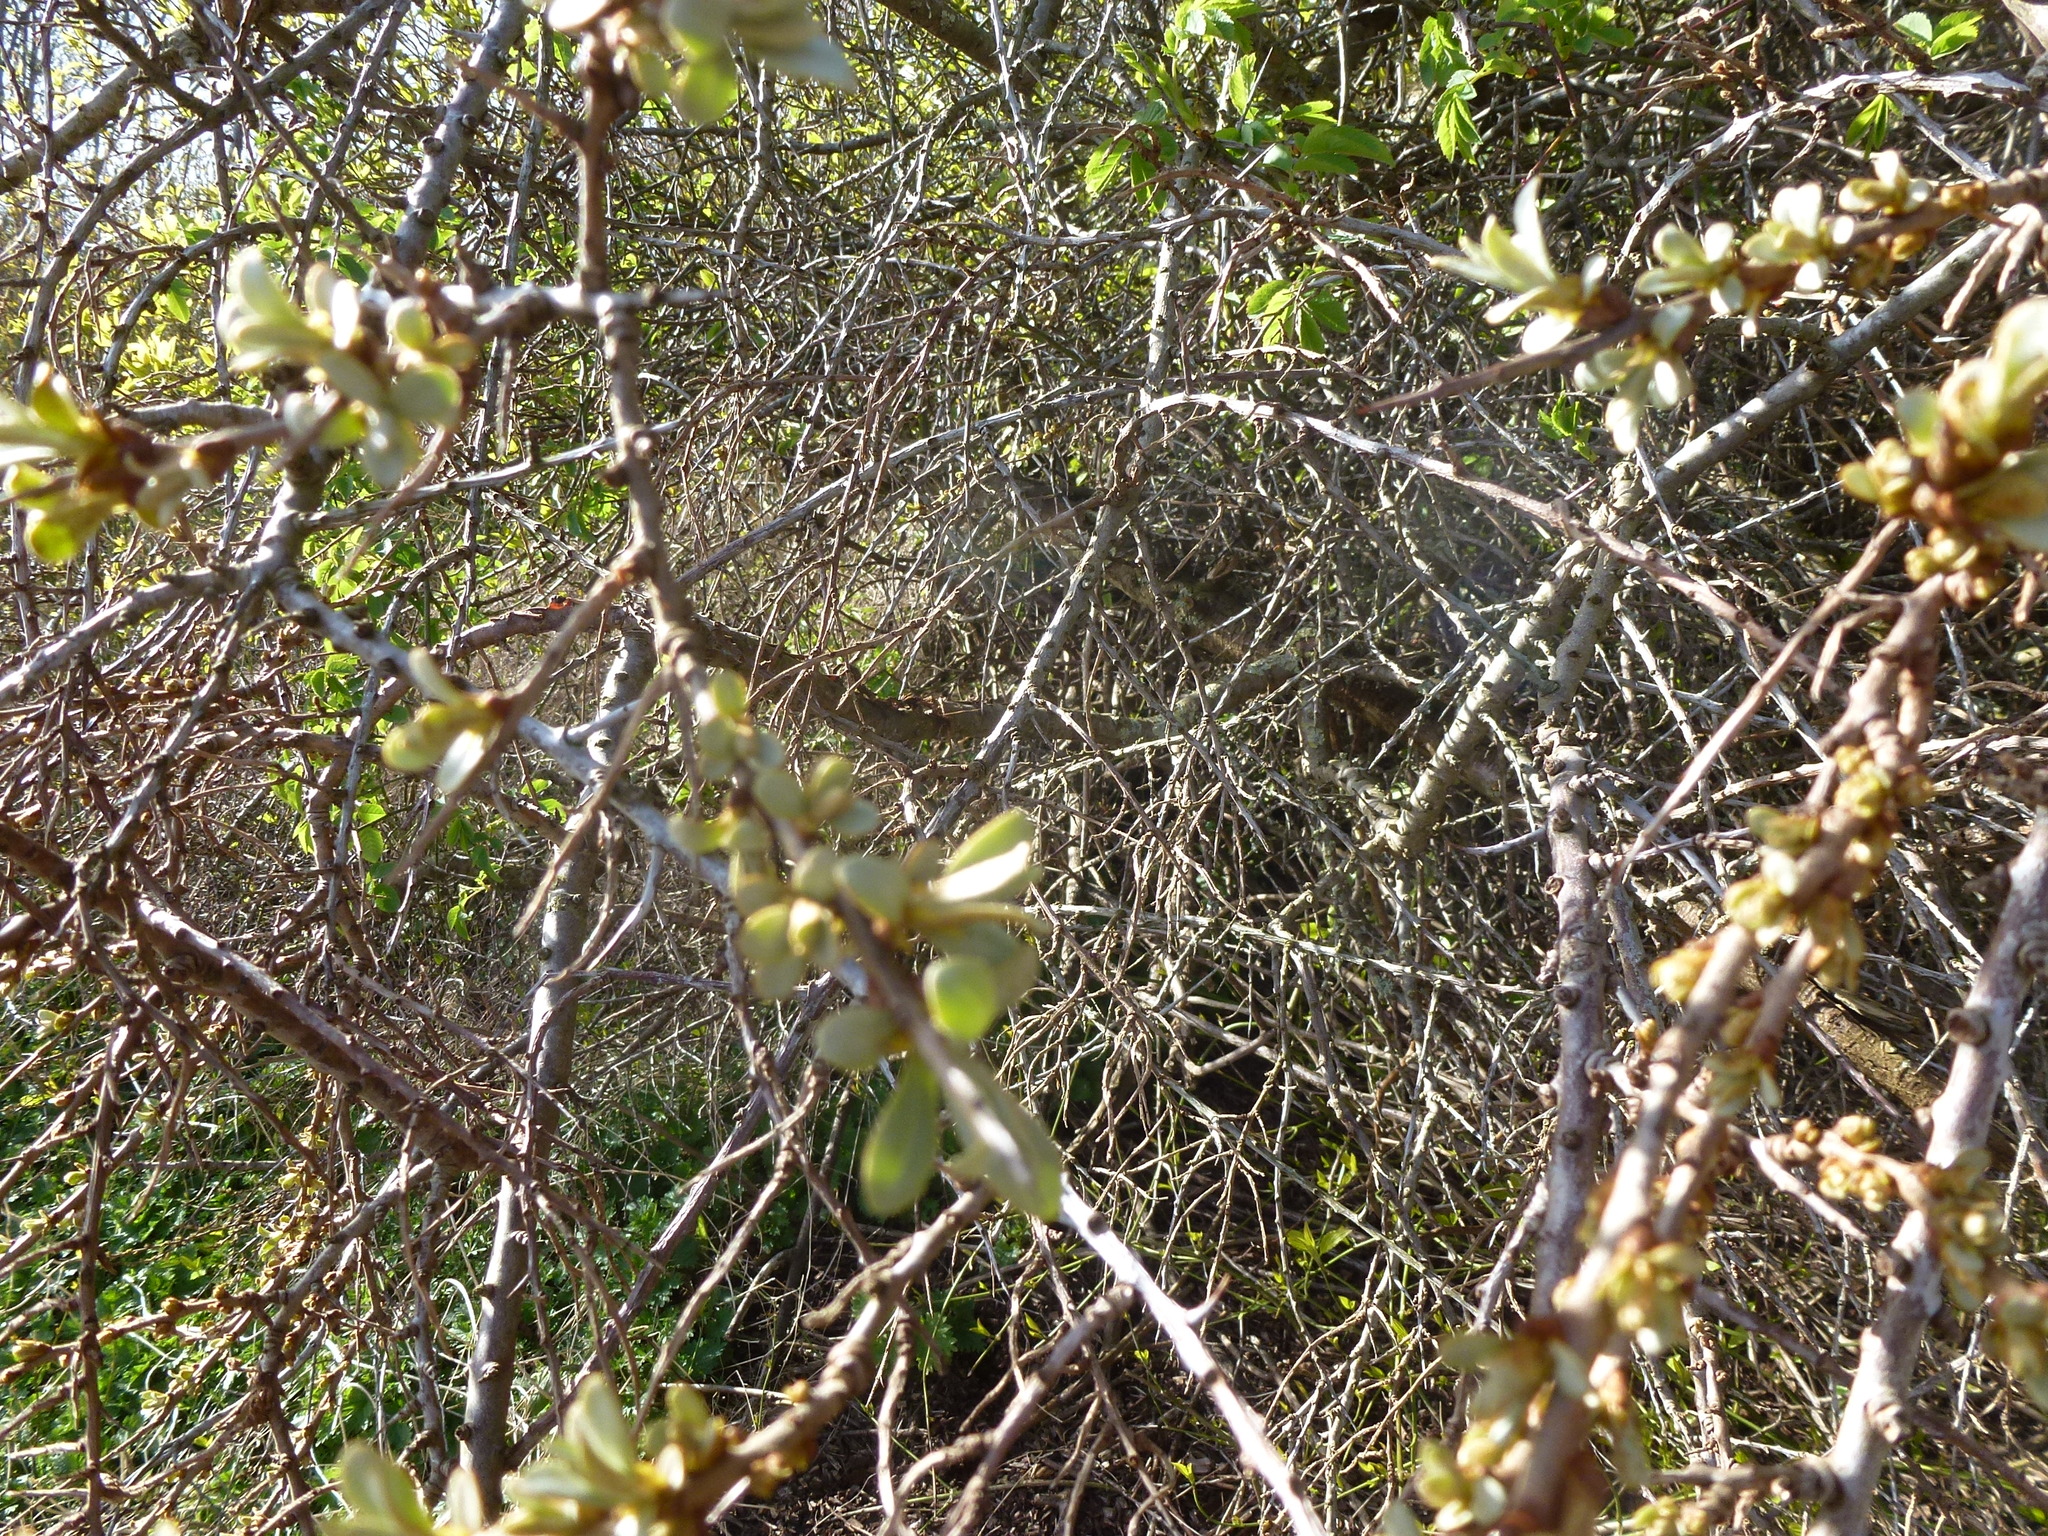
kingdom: Plantae
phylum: Tracheophyta
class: Magnoliopsida
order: Rosales
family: Elaeagnaceae
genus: Hippophae
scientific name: Hippophae rhamnoides
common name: Sea-buckthorn
